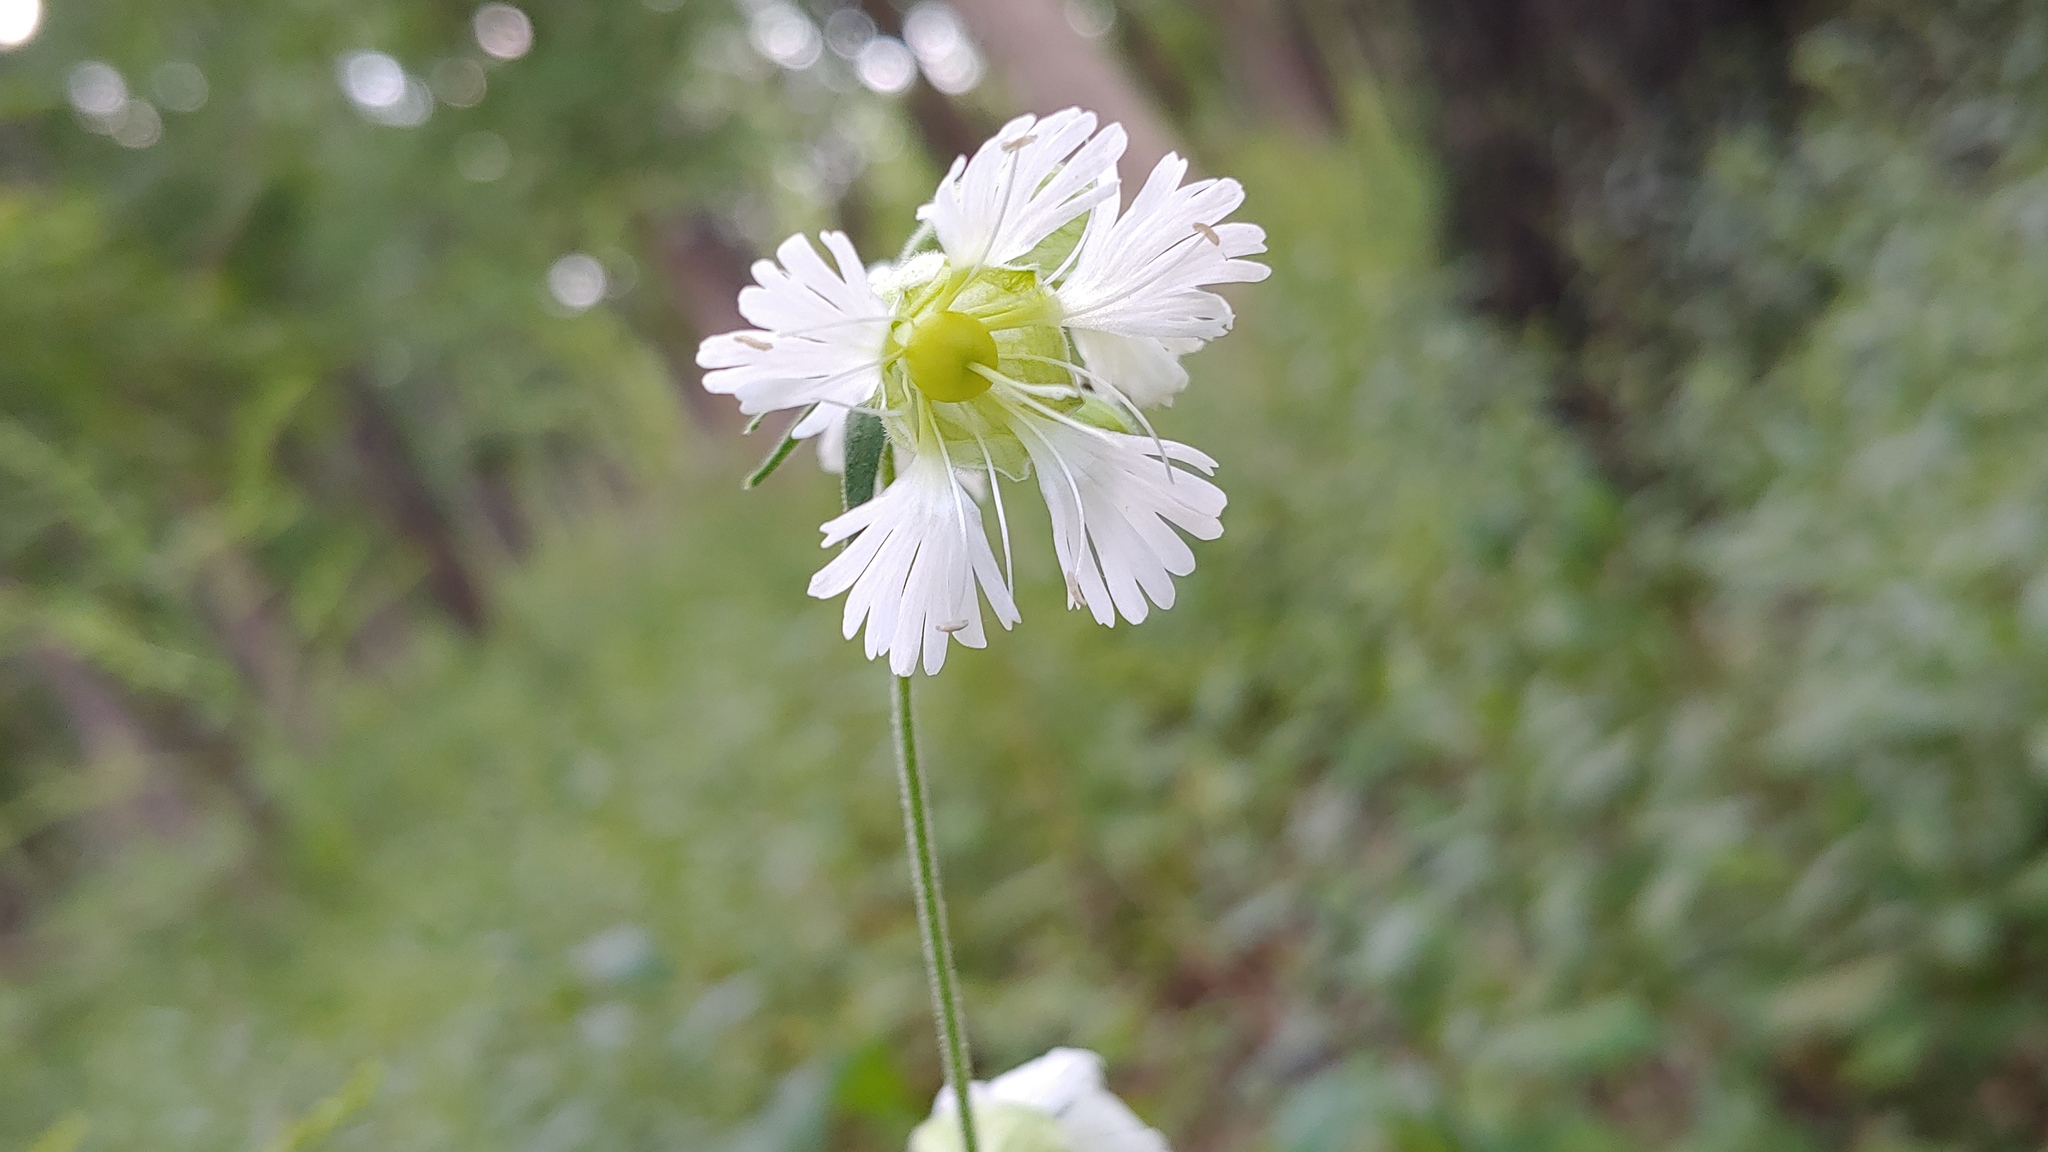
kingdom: Plantae
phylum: Tracheophyta
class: Magnoliopsida
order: Caryophyllales
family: Caryophyllaceae
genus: Silene
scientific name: Silene stellata
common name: Starry campion
